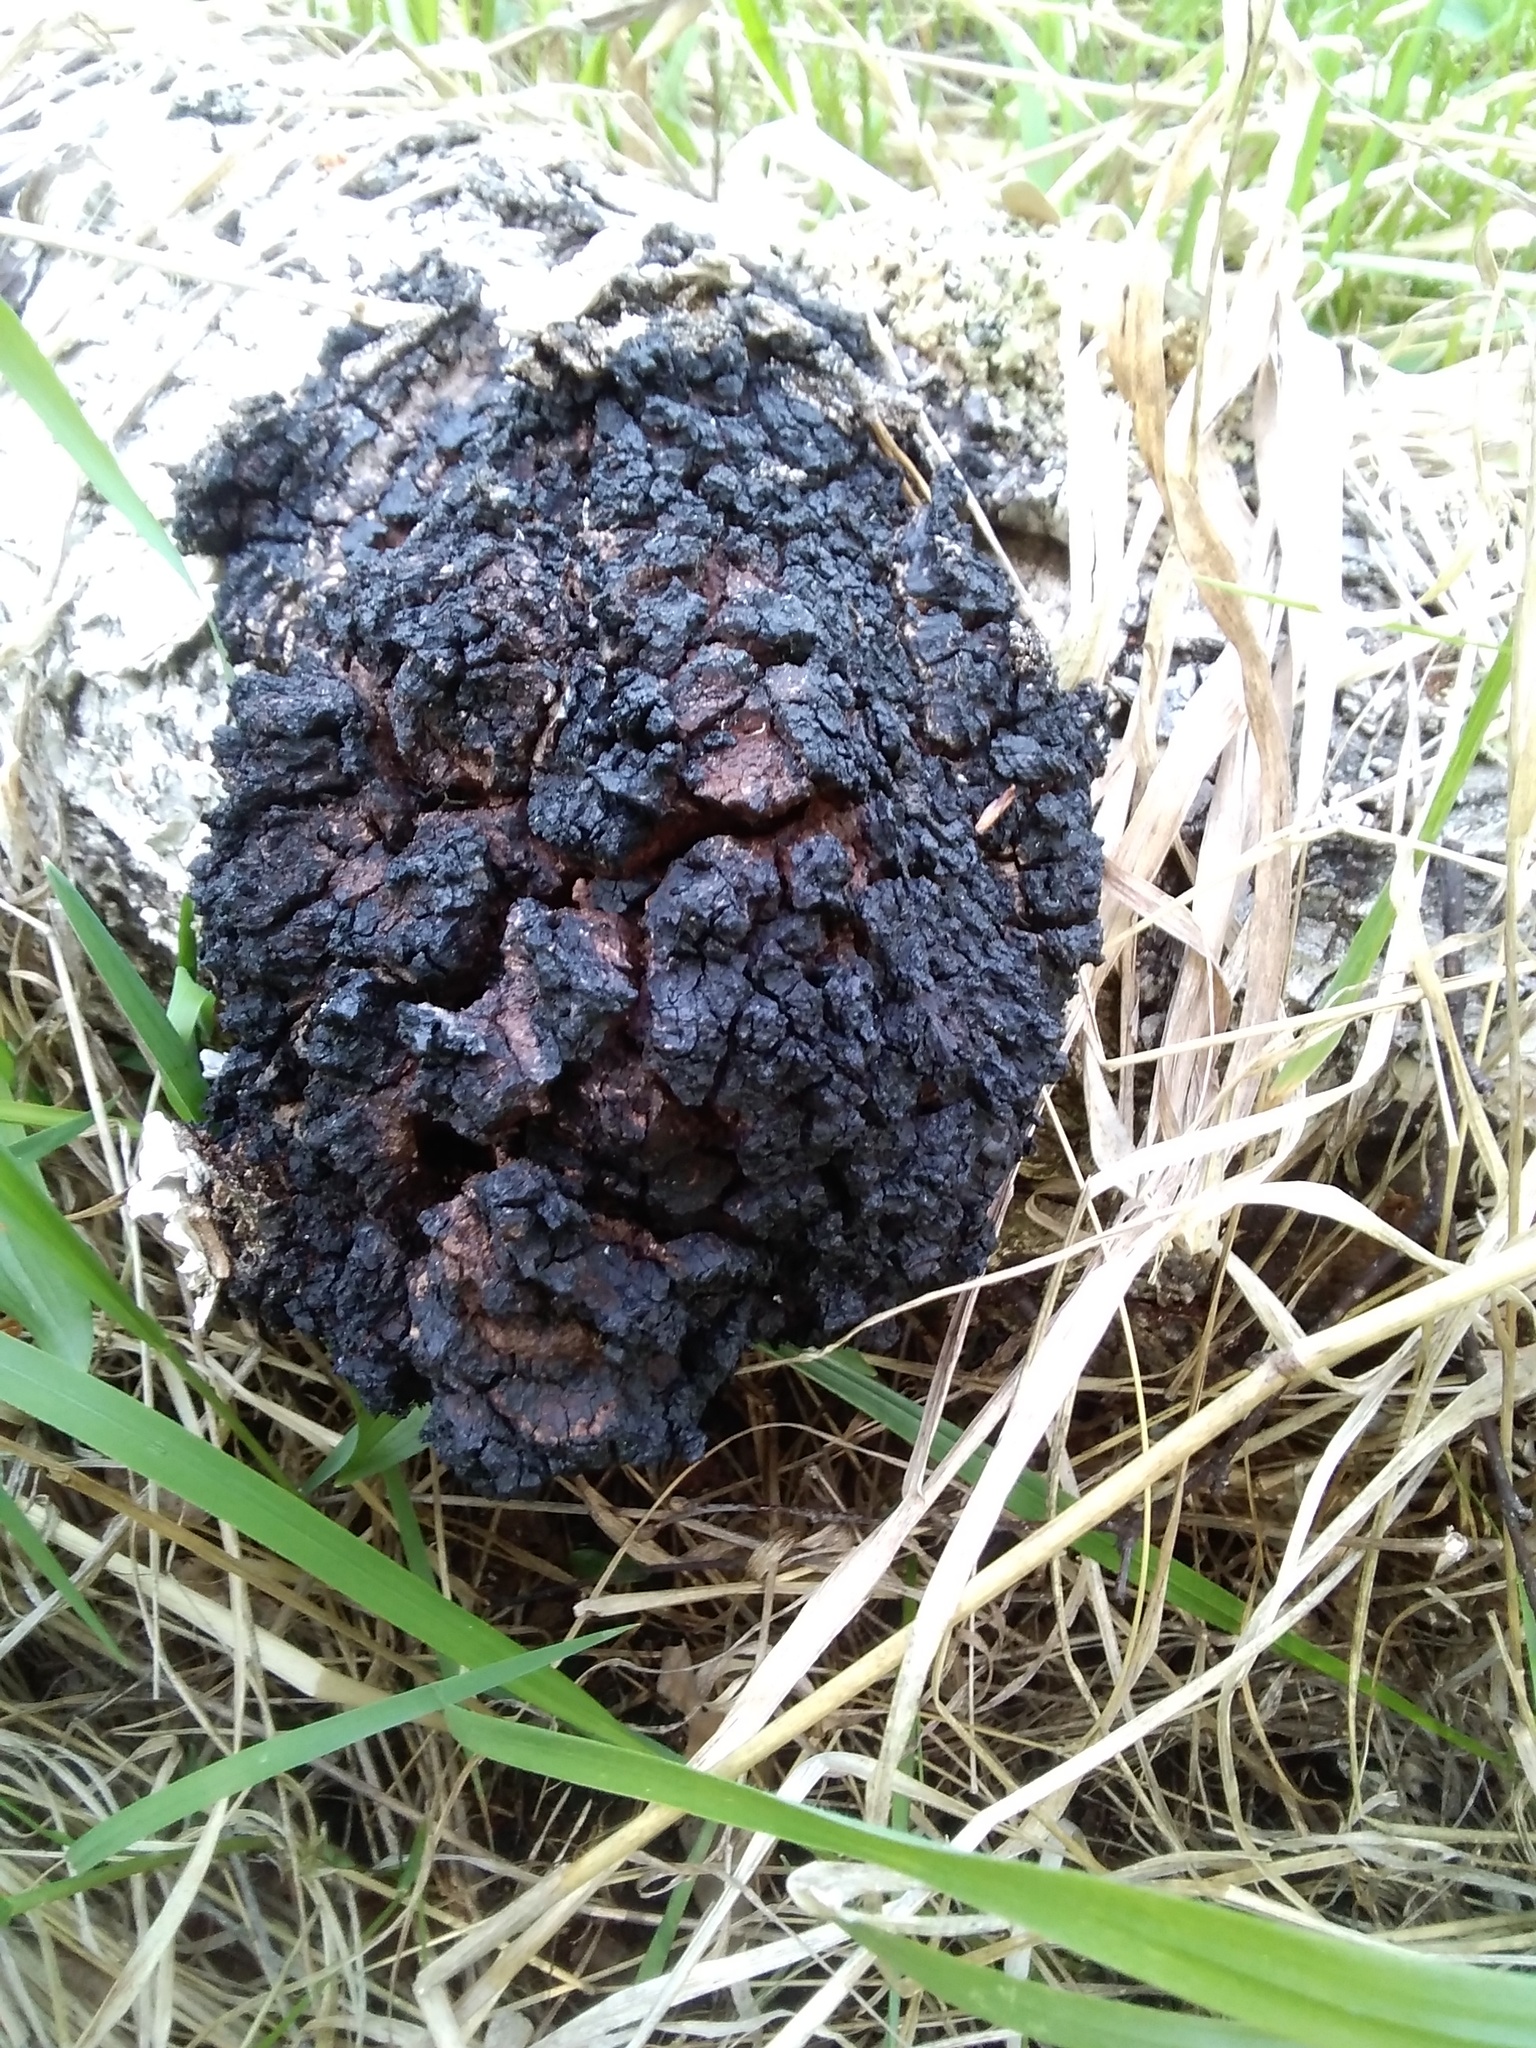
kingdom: Fungi
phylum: Basidiomycota
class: Agaricomycetes
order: Hymenochaetales
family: Hymenochaetaceae
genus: Inonotus
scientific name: Inonotus obliquus
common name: Chaga
